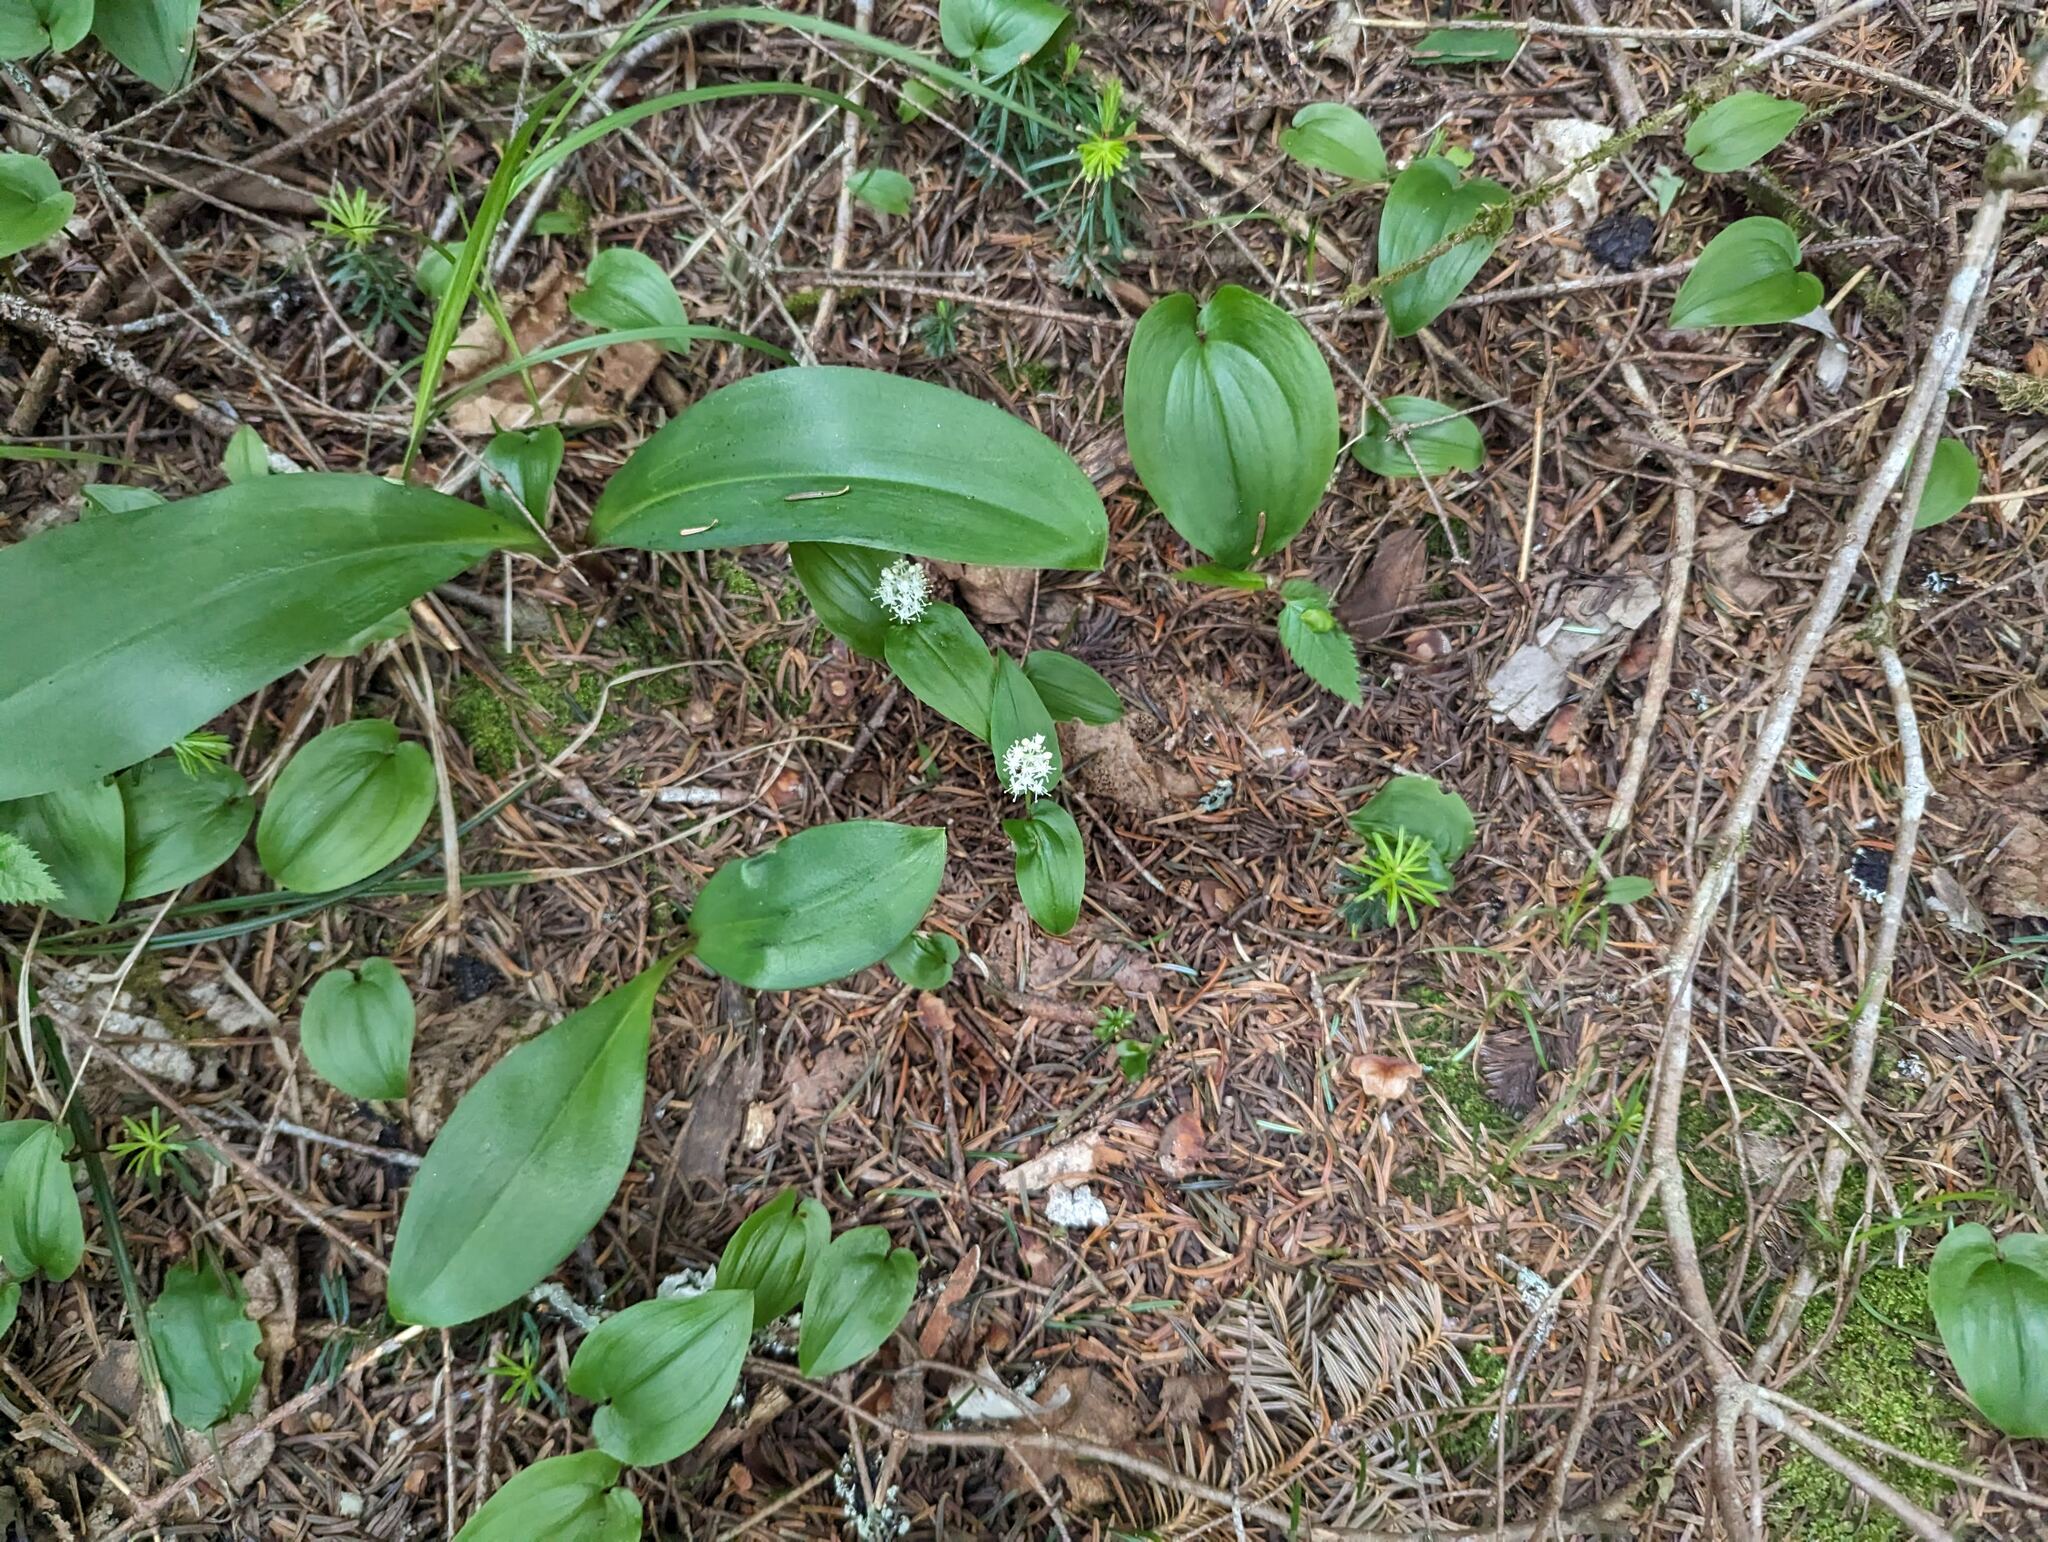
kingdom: Plantae
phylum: Tracheophyta
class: Liliopsida
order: Asparagales
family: Asparagaceae
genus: Maianthemum
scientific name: Maianthemum canadense
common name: False lily-of-the-valley
